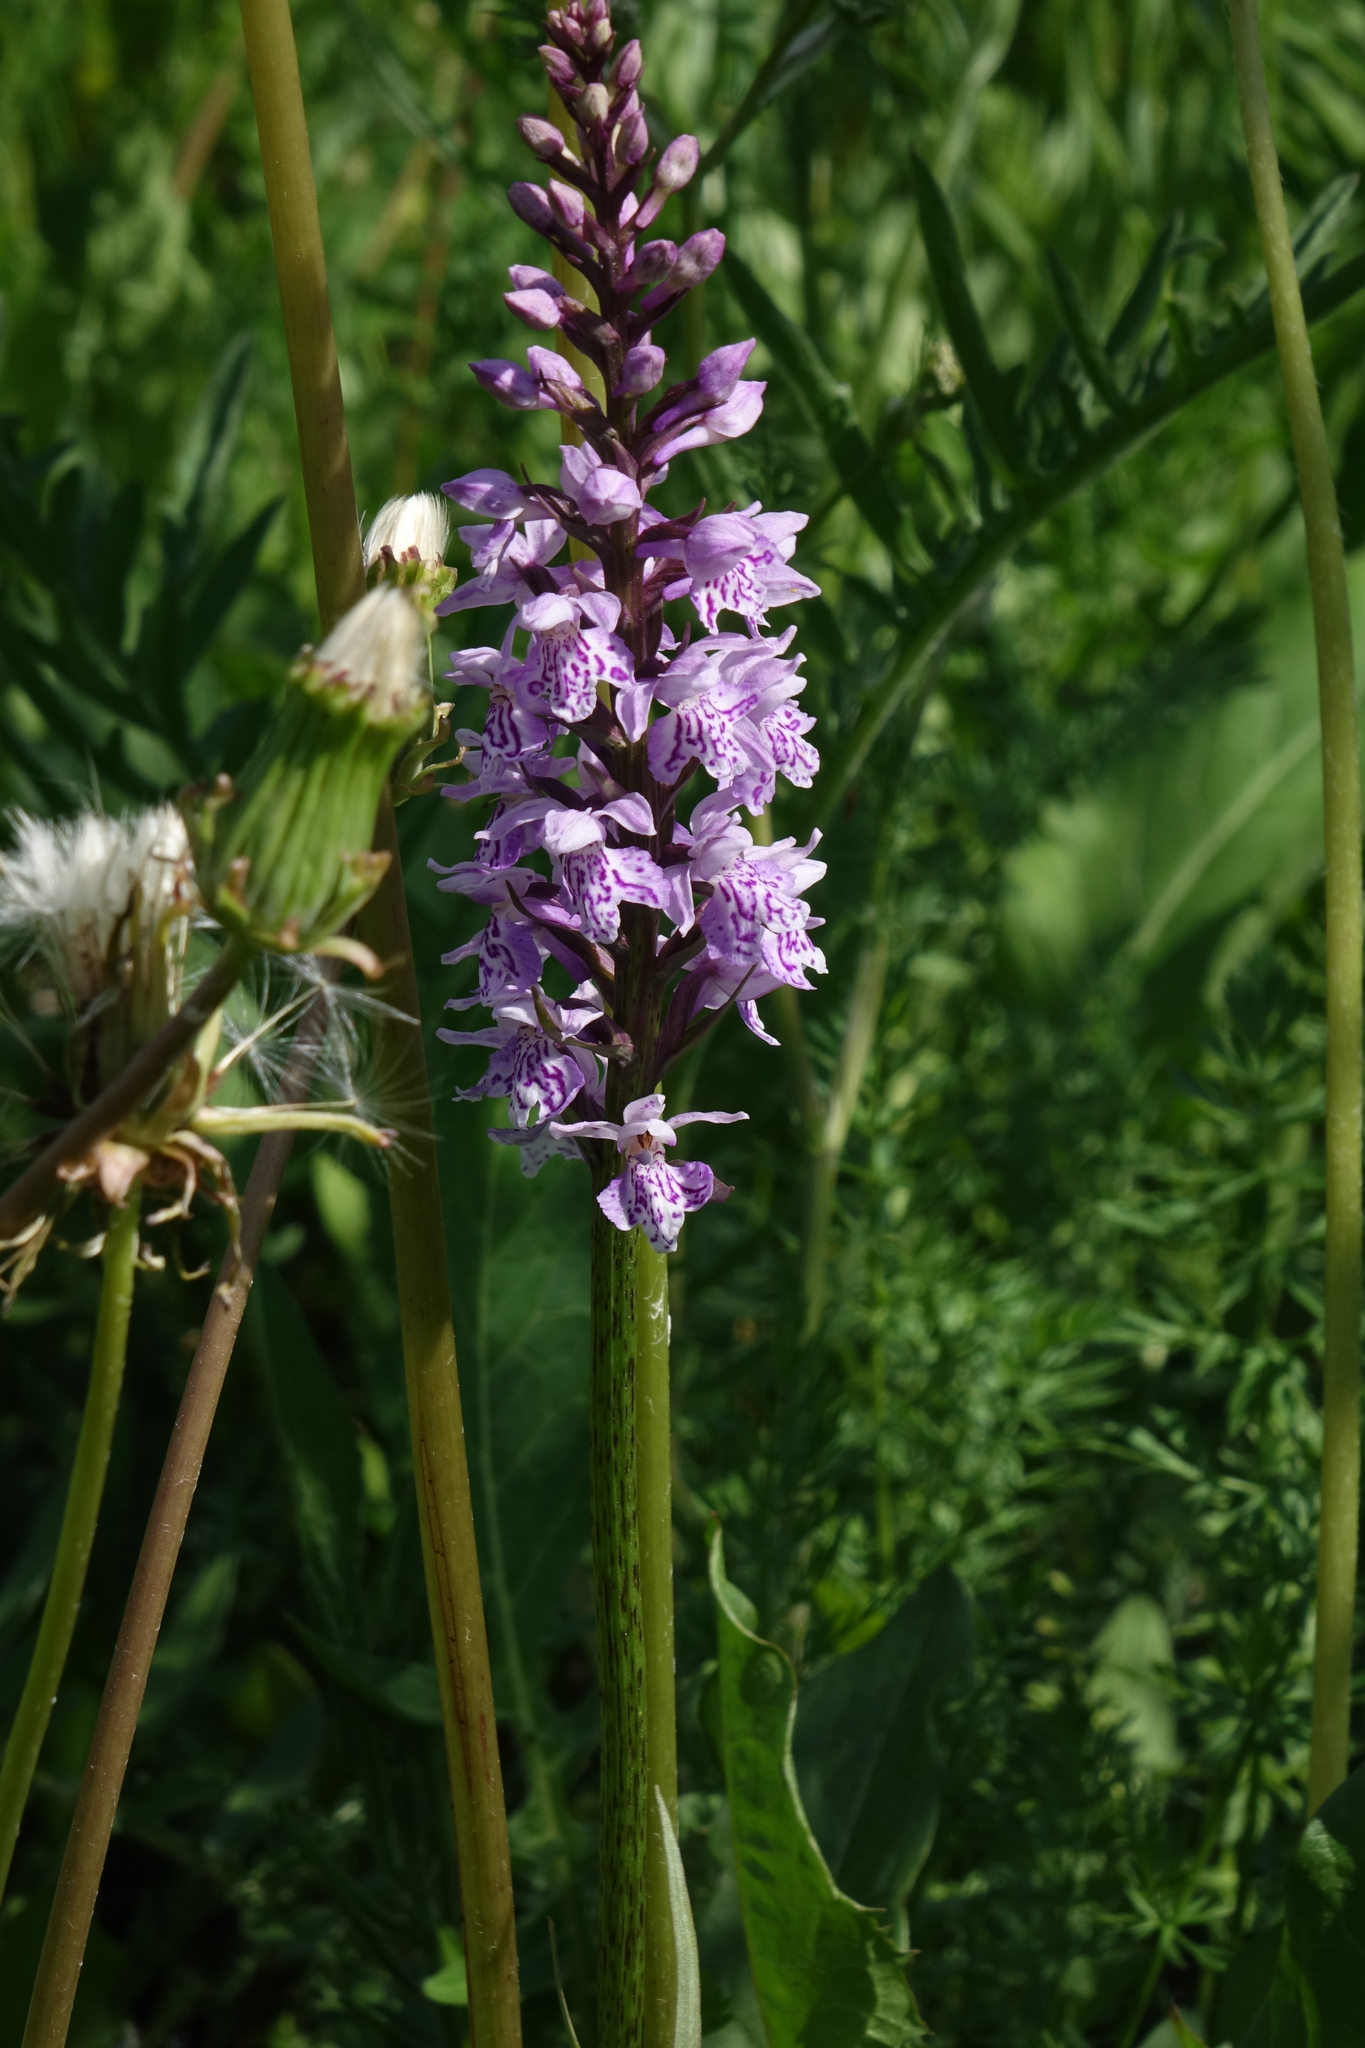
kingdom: Plantae
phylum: Tracheophyta
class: Liliopsida
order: Asparagales
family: Orchidaceae
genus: Dactylorhiza
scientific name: Dactylorhiza maculata
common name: Heath spotted-orchid
